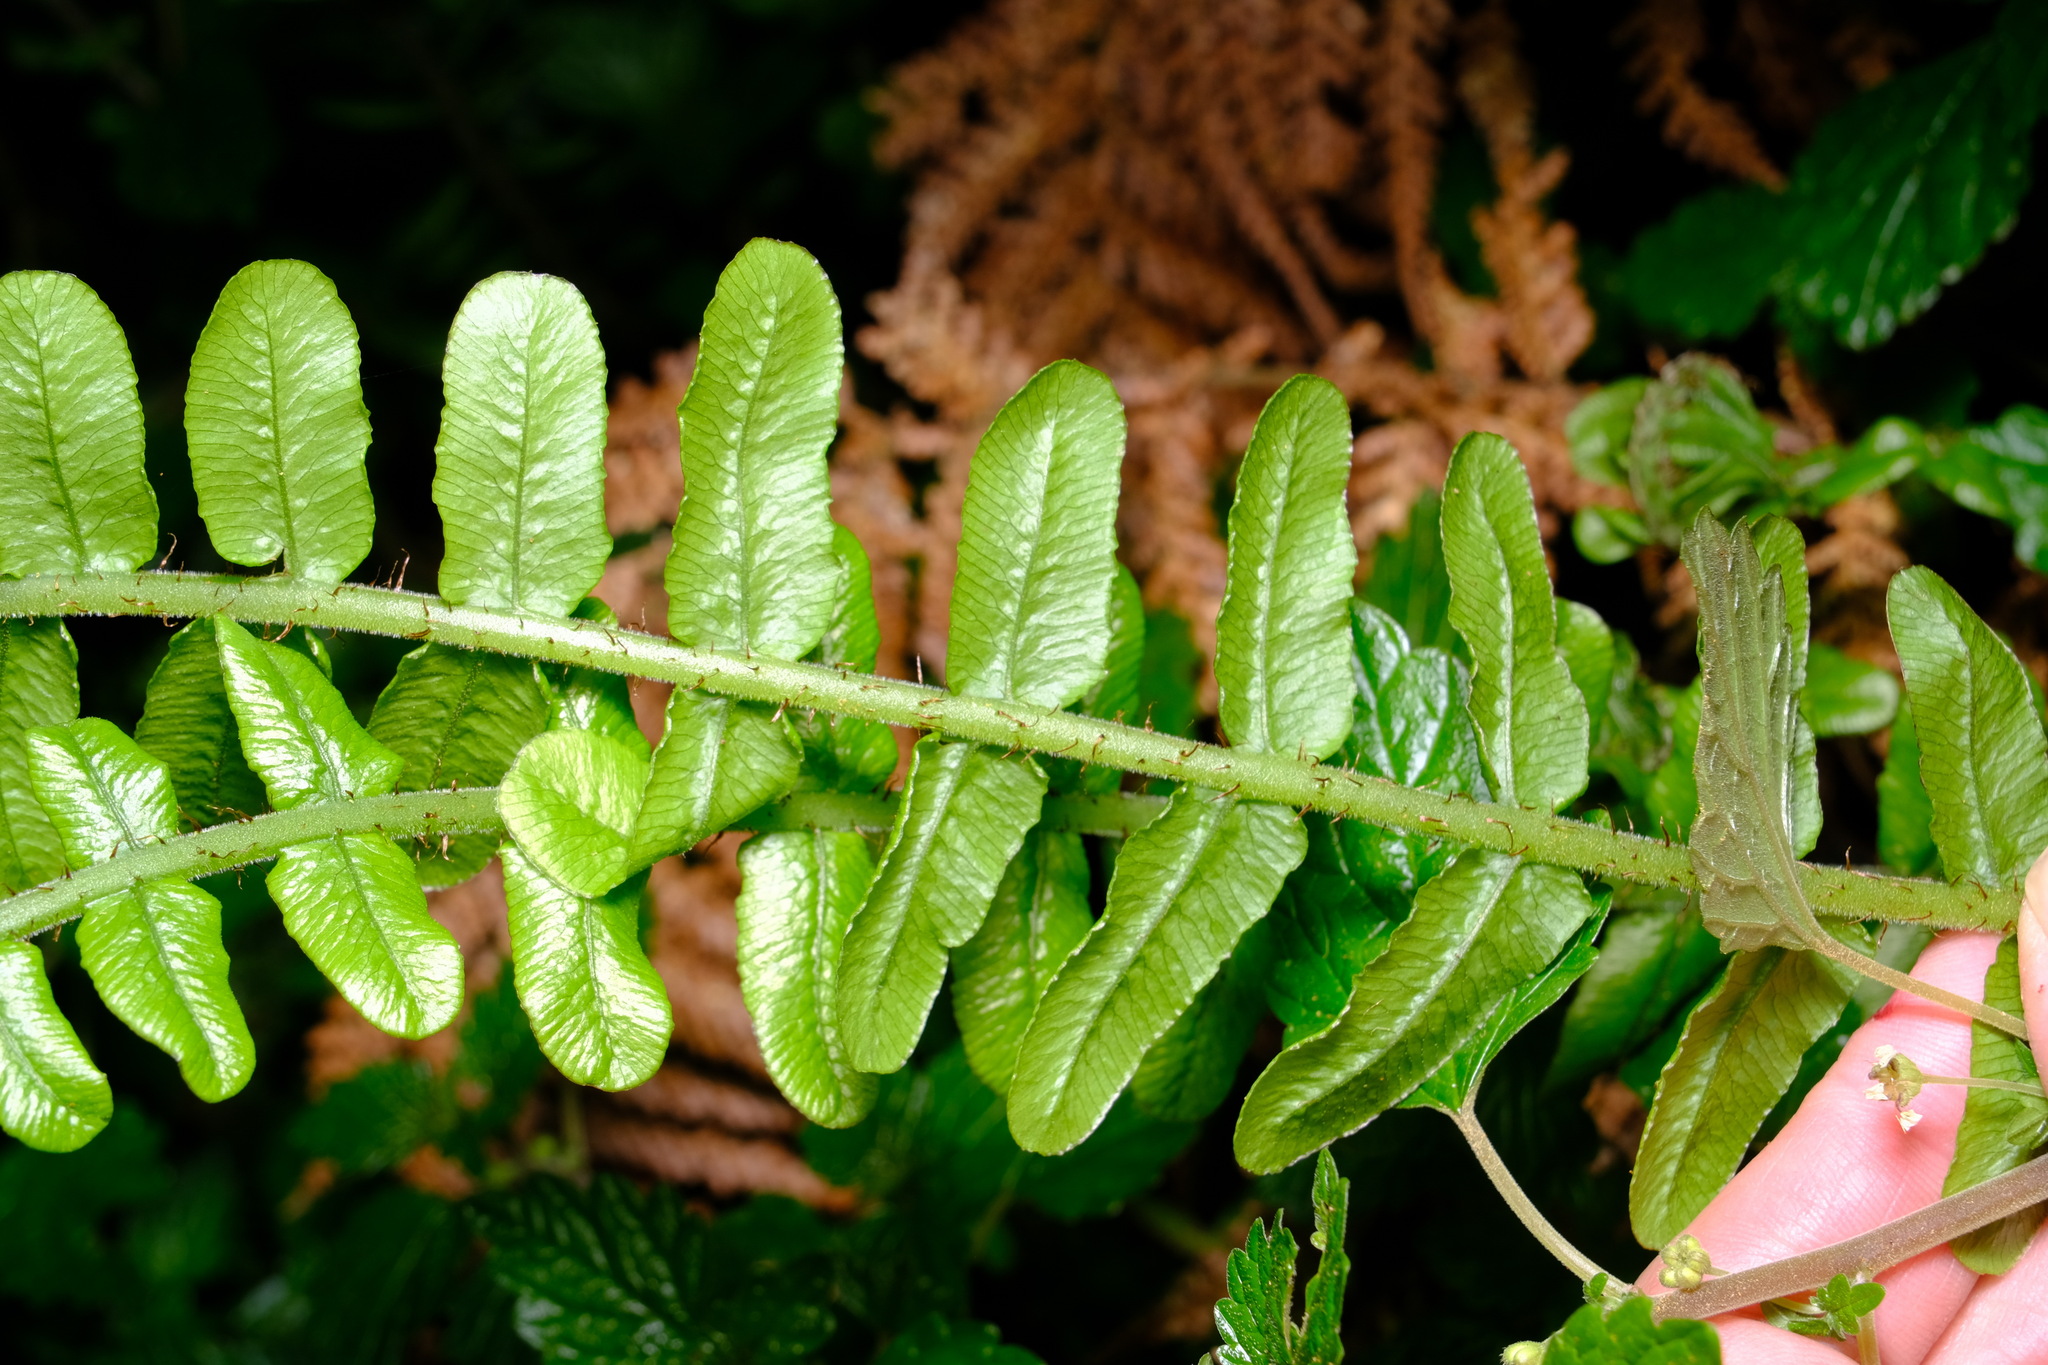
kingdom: Plantae
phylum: Tracheophyta
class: Polypodiopsida
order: Polypodiales
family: Blechnaceae
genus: Cranfillia
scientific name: Cranfillia fluviatilis
